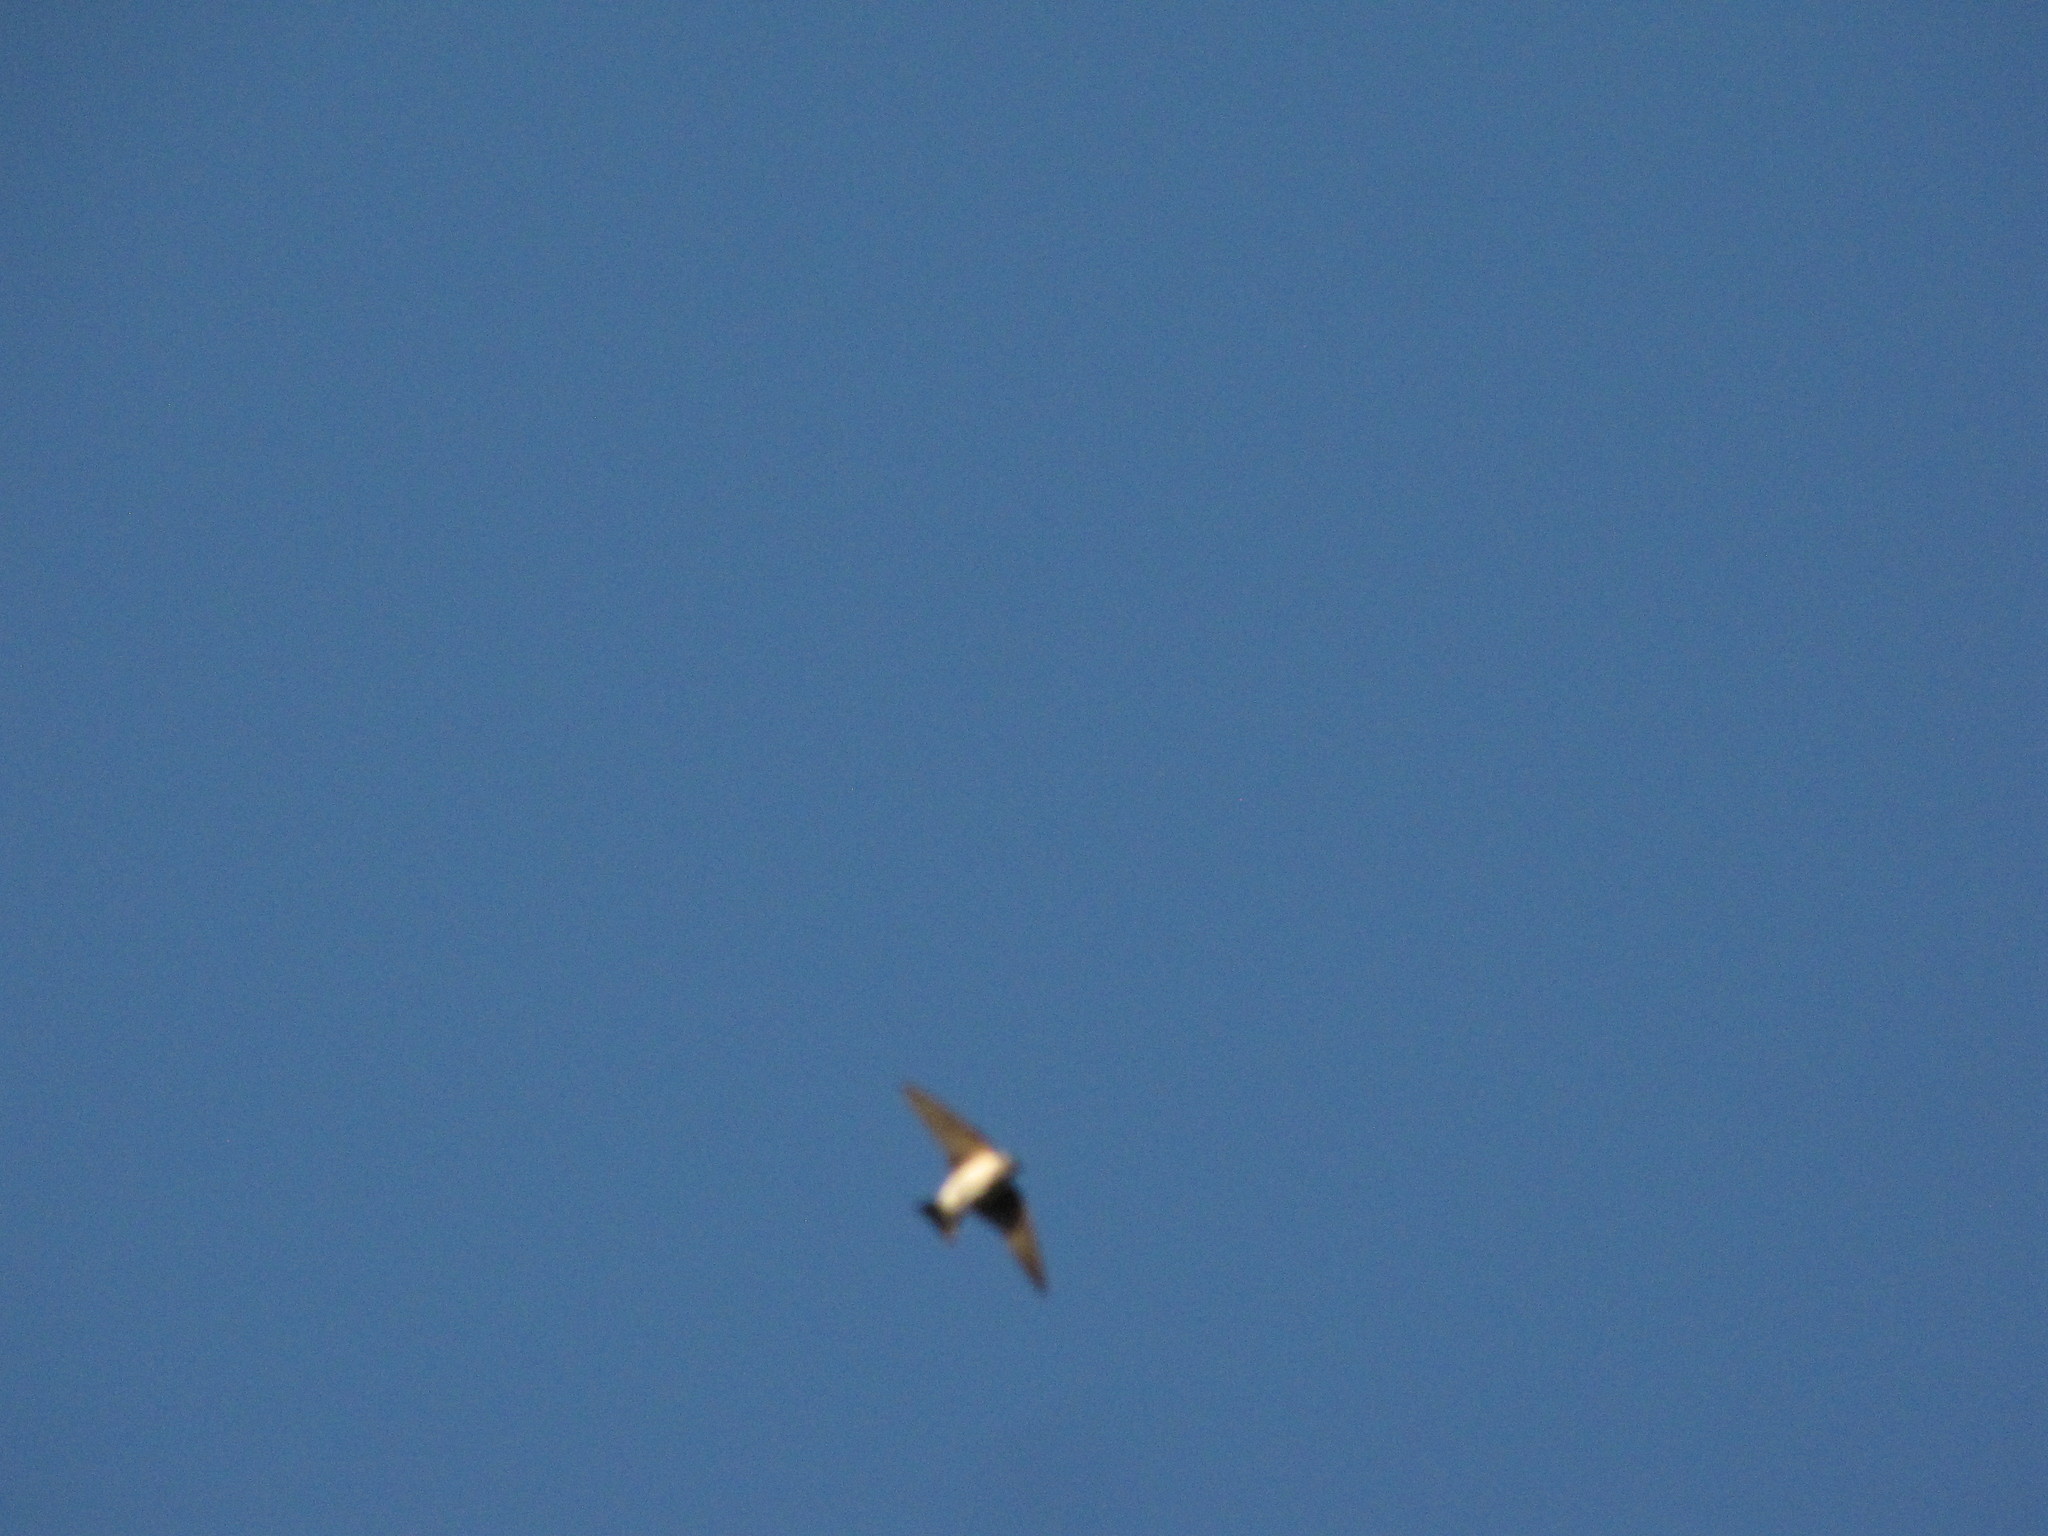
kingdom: Animalia
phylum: Chordata
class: Aves
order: Passeriformes
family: Hirundinidae
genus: Tachycineta
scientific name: Tachycineta thalassina
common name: Violet-green swallow
